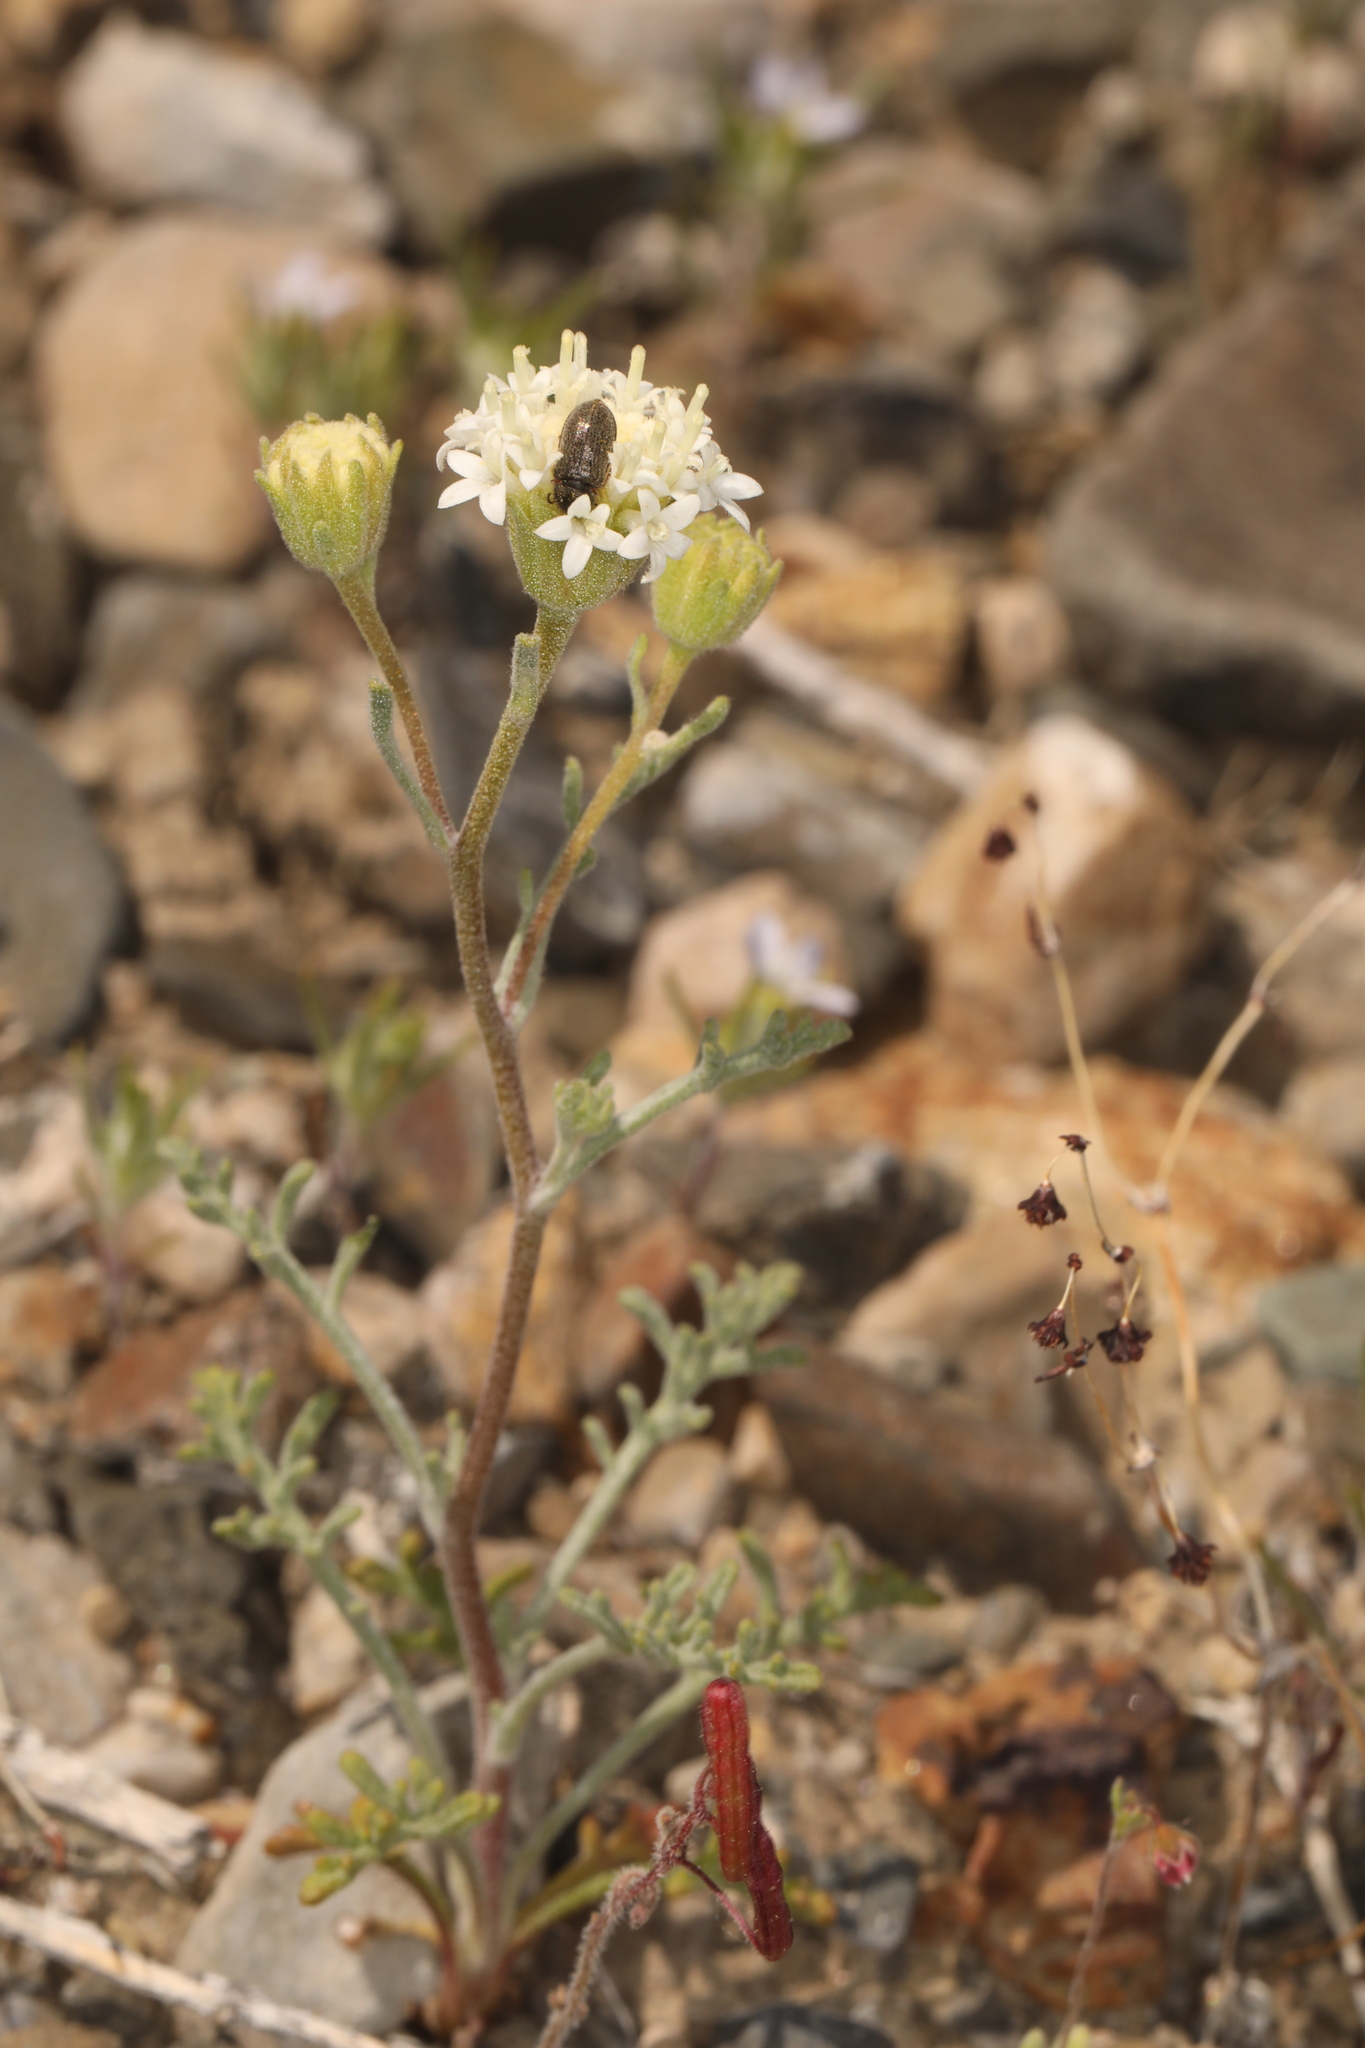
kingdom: Plantae
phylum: Tracheophyta
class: Magnoliopsida
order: Asterales
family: Asteraceae
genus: Chaenactis
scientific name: Chaenactis stevioides
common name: Desert pincushion
